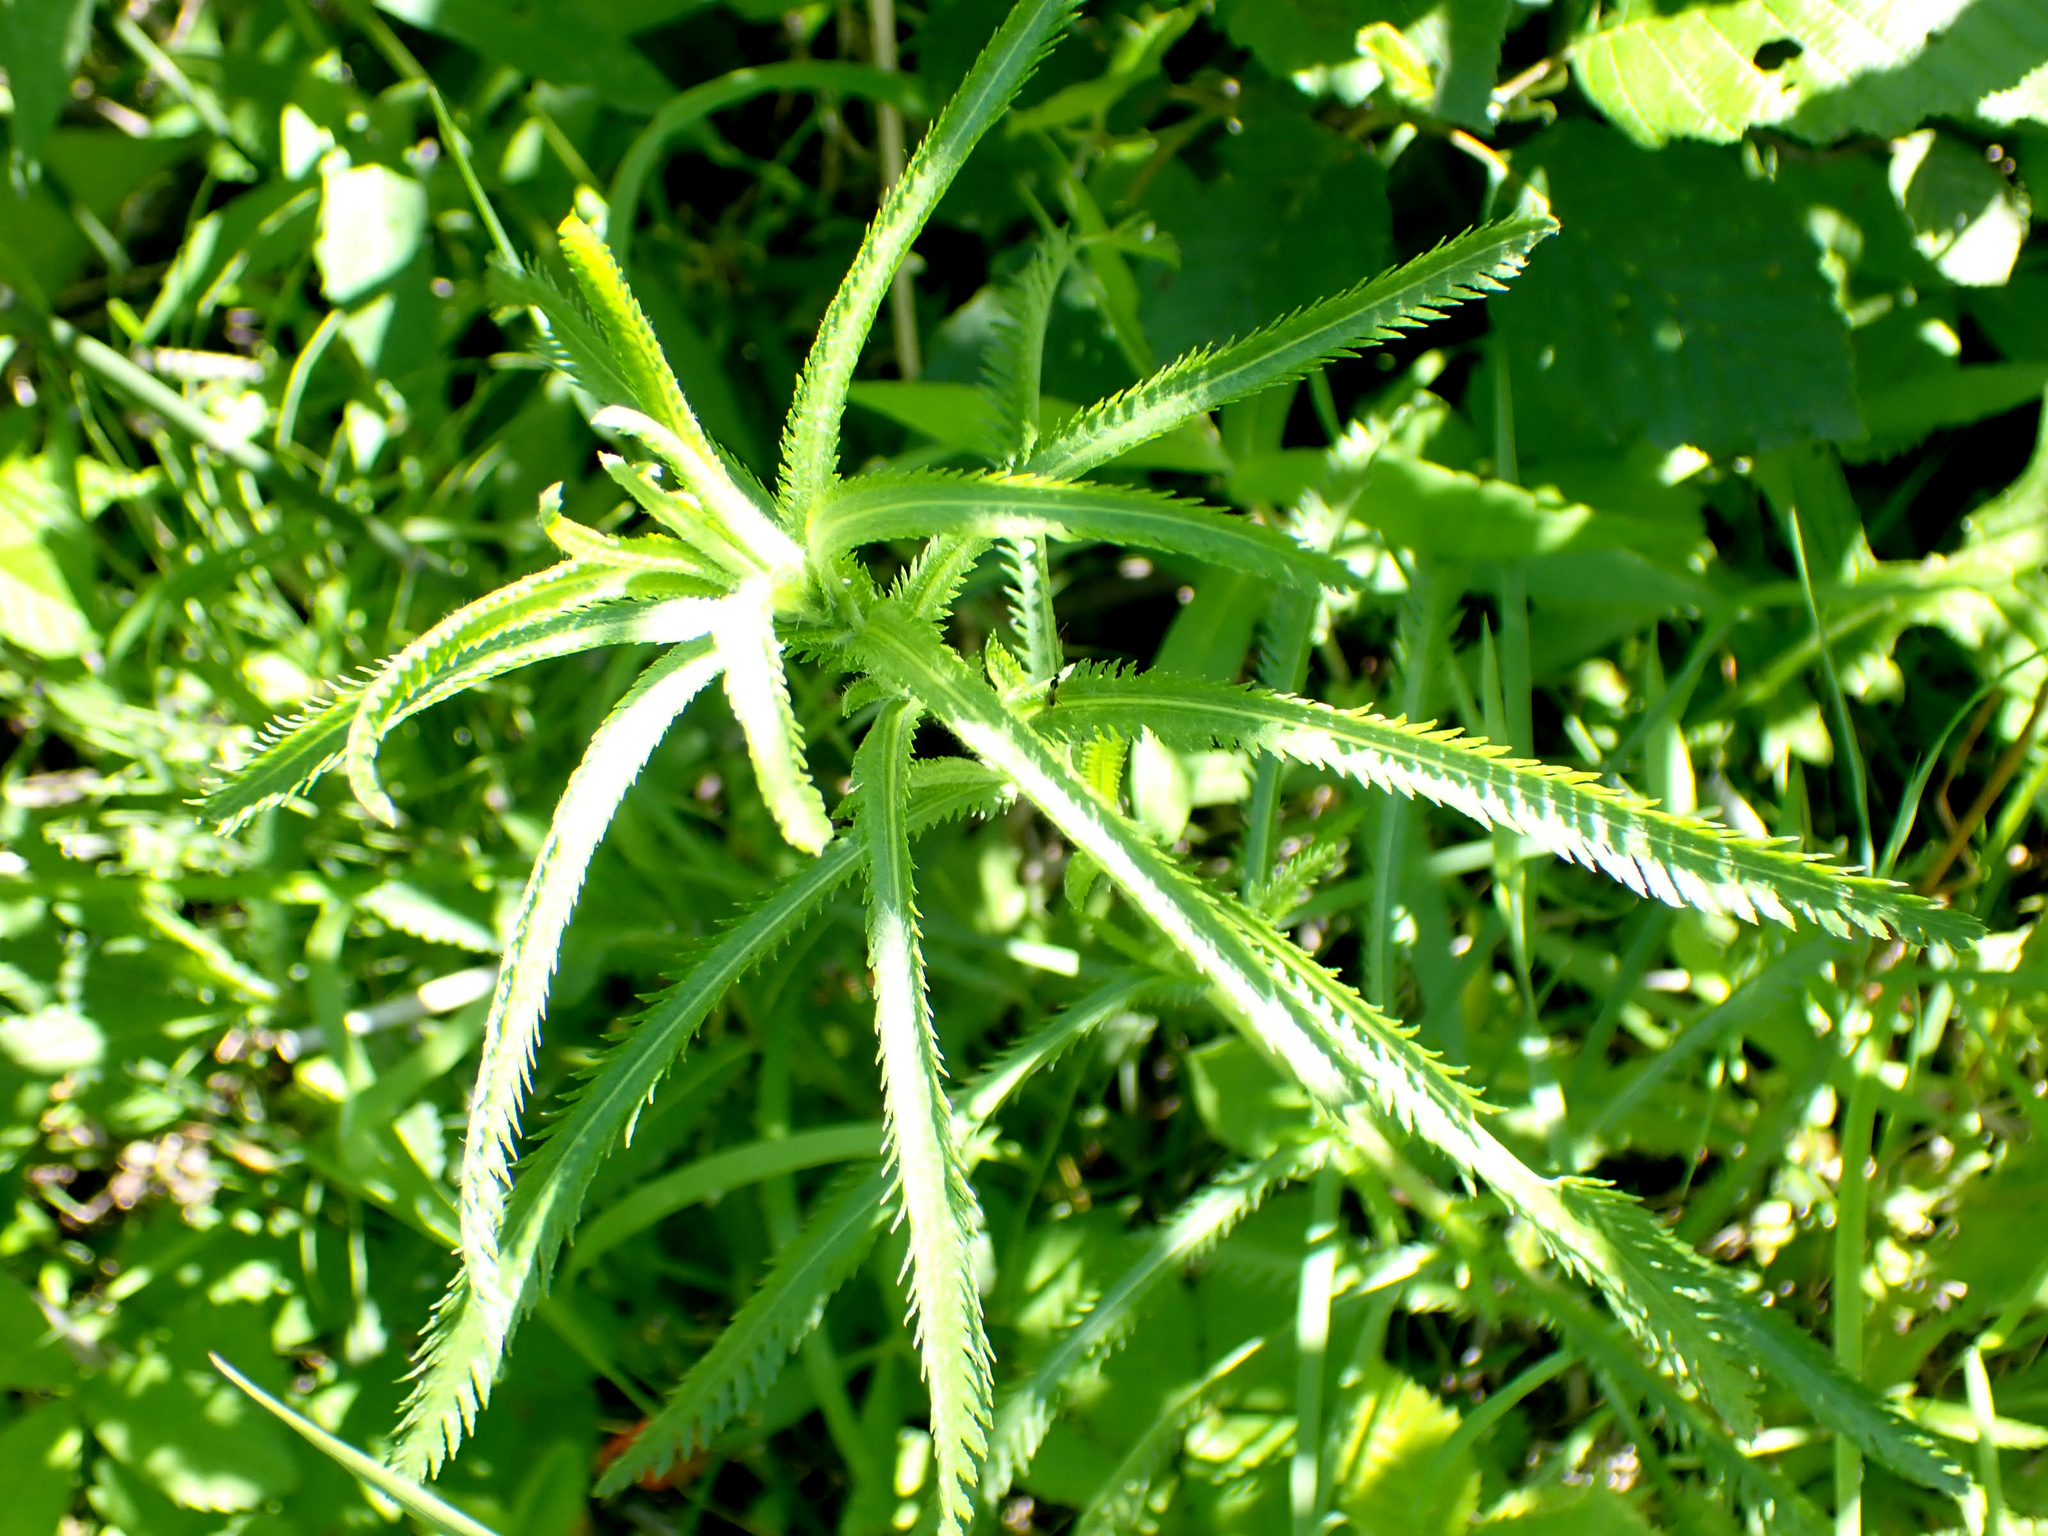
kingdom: Plantae
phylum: Tracheophyta
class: Magnoliopsida
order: Asterales
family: Asteraceae
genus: Achillea
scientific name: Achillea alpina
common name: Siberian yarrow
